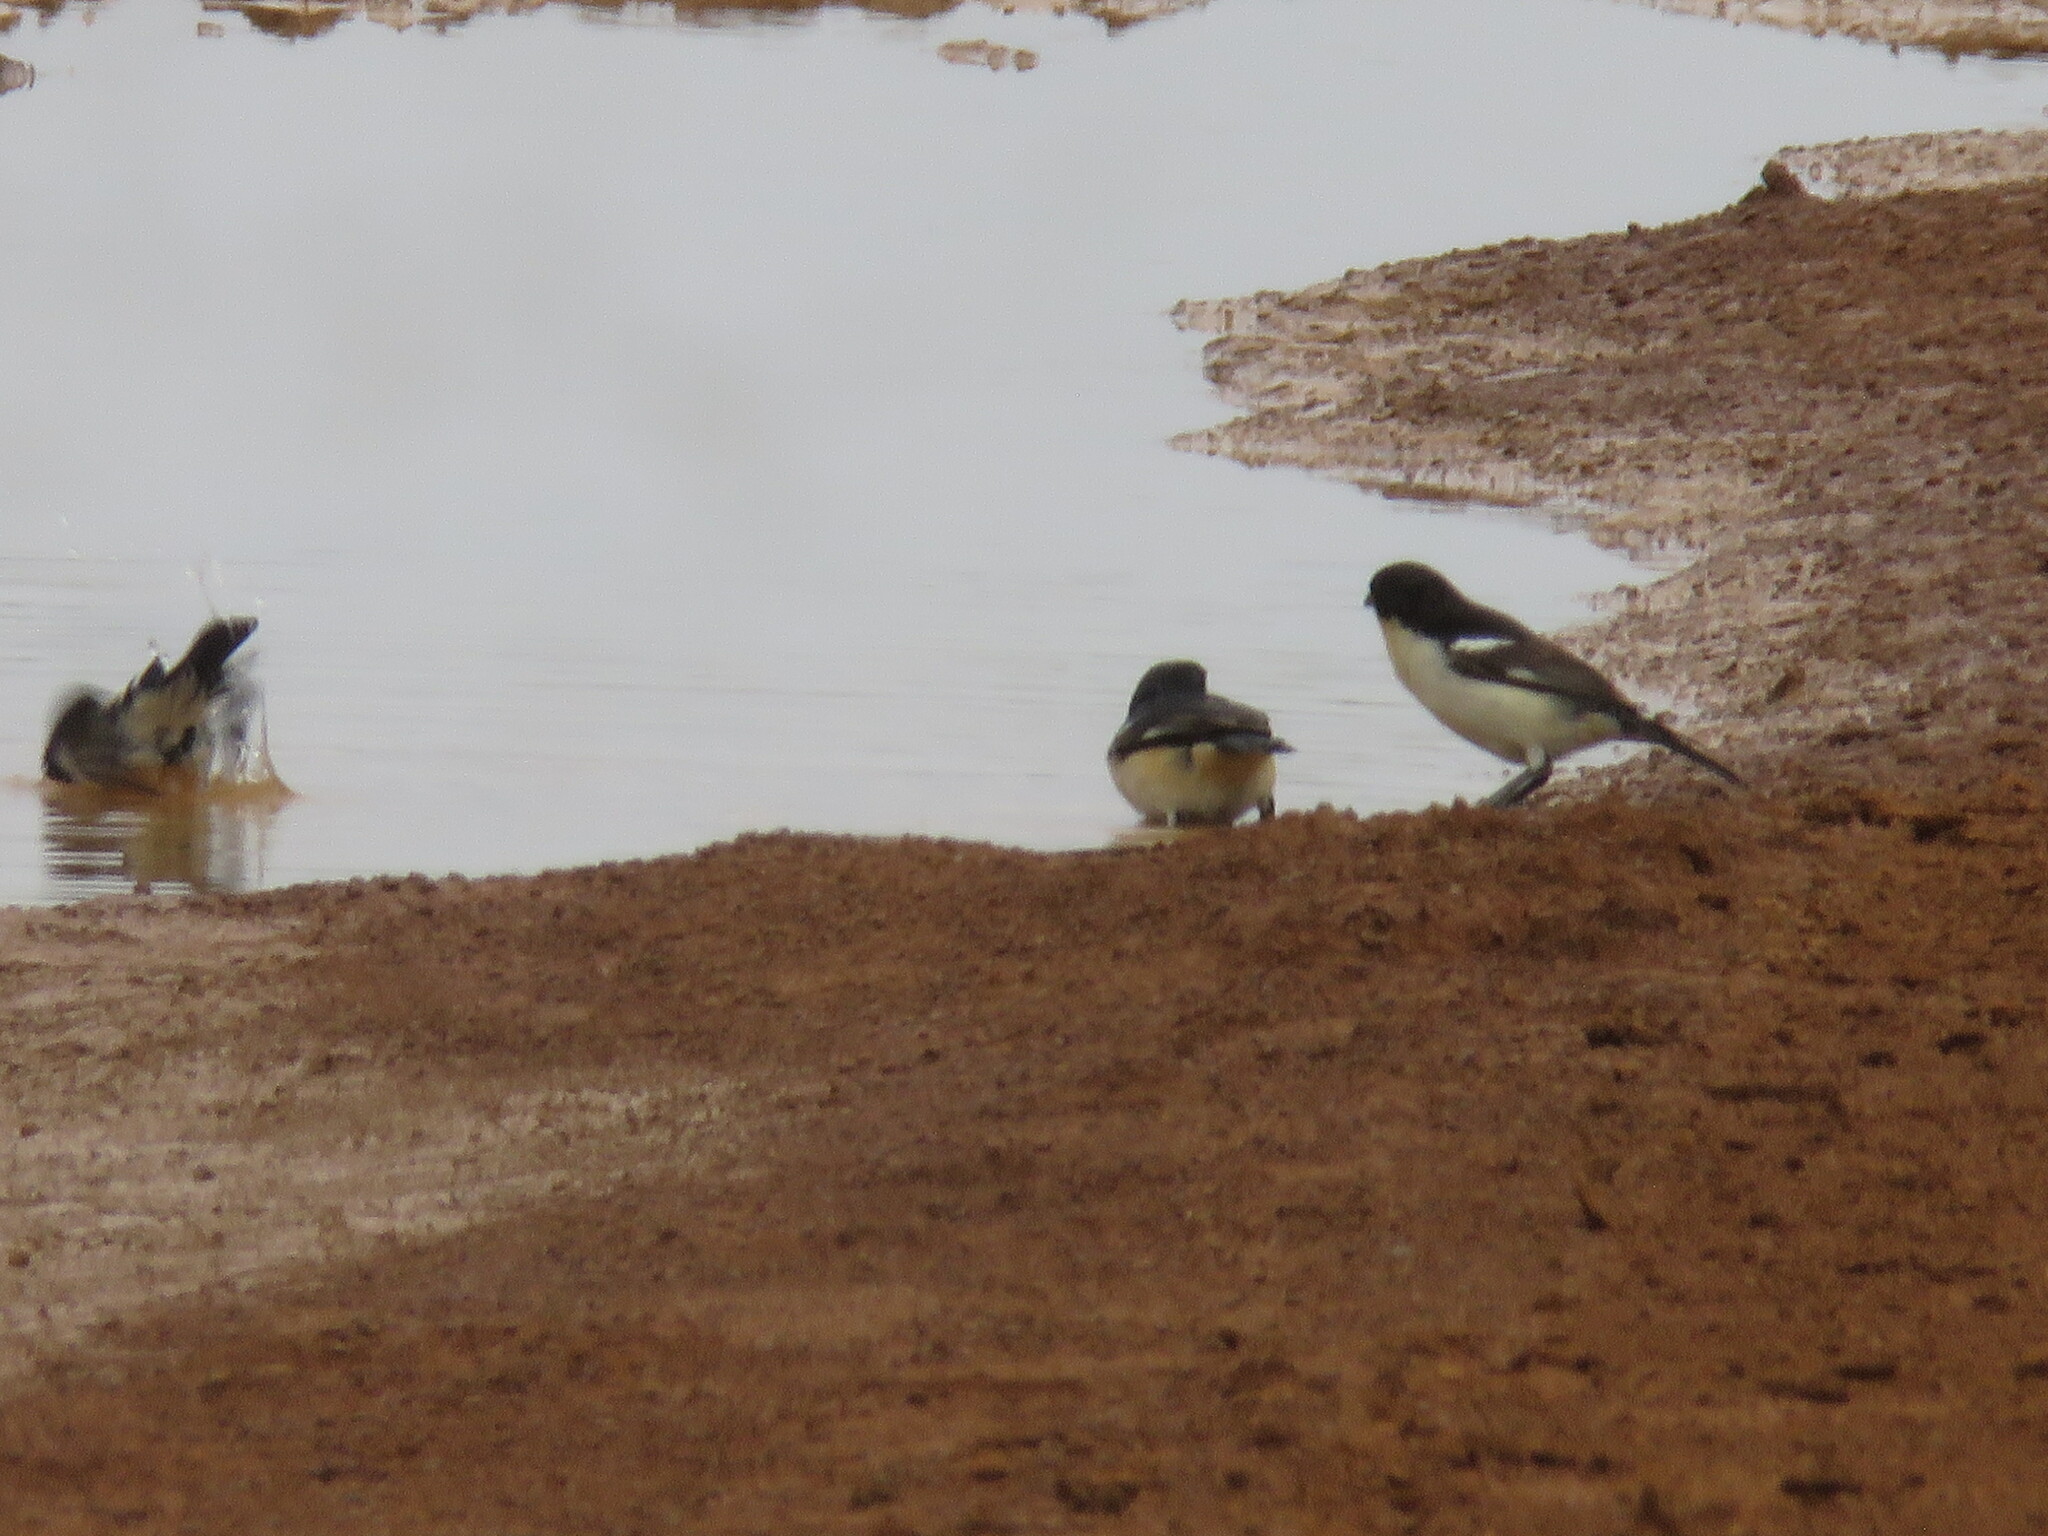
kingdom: Animalia
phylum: Chordata
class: Aves
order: Passeriformes
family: Thraupidae
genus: Cypsnagra
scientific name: Cypsnagra hirundinacea
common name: White-rumped tanager
